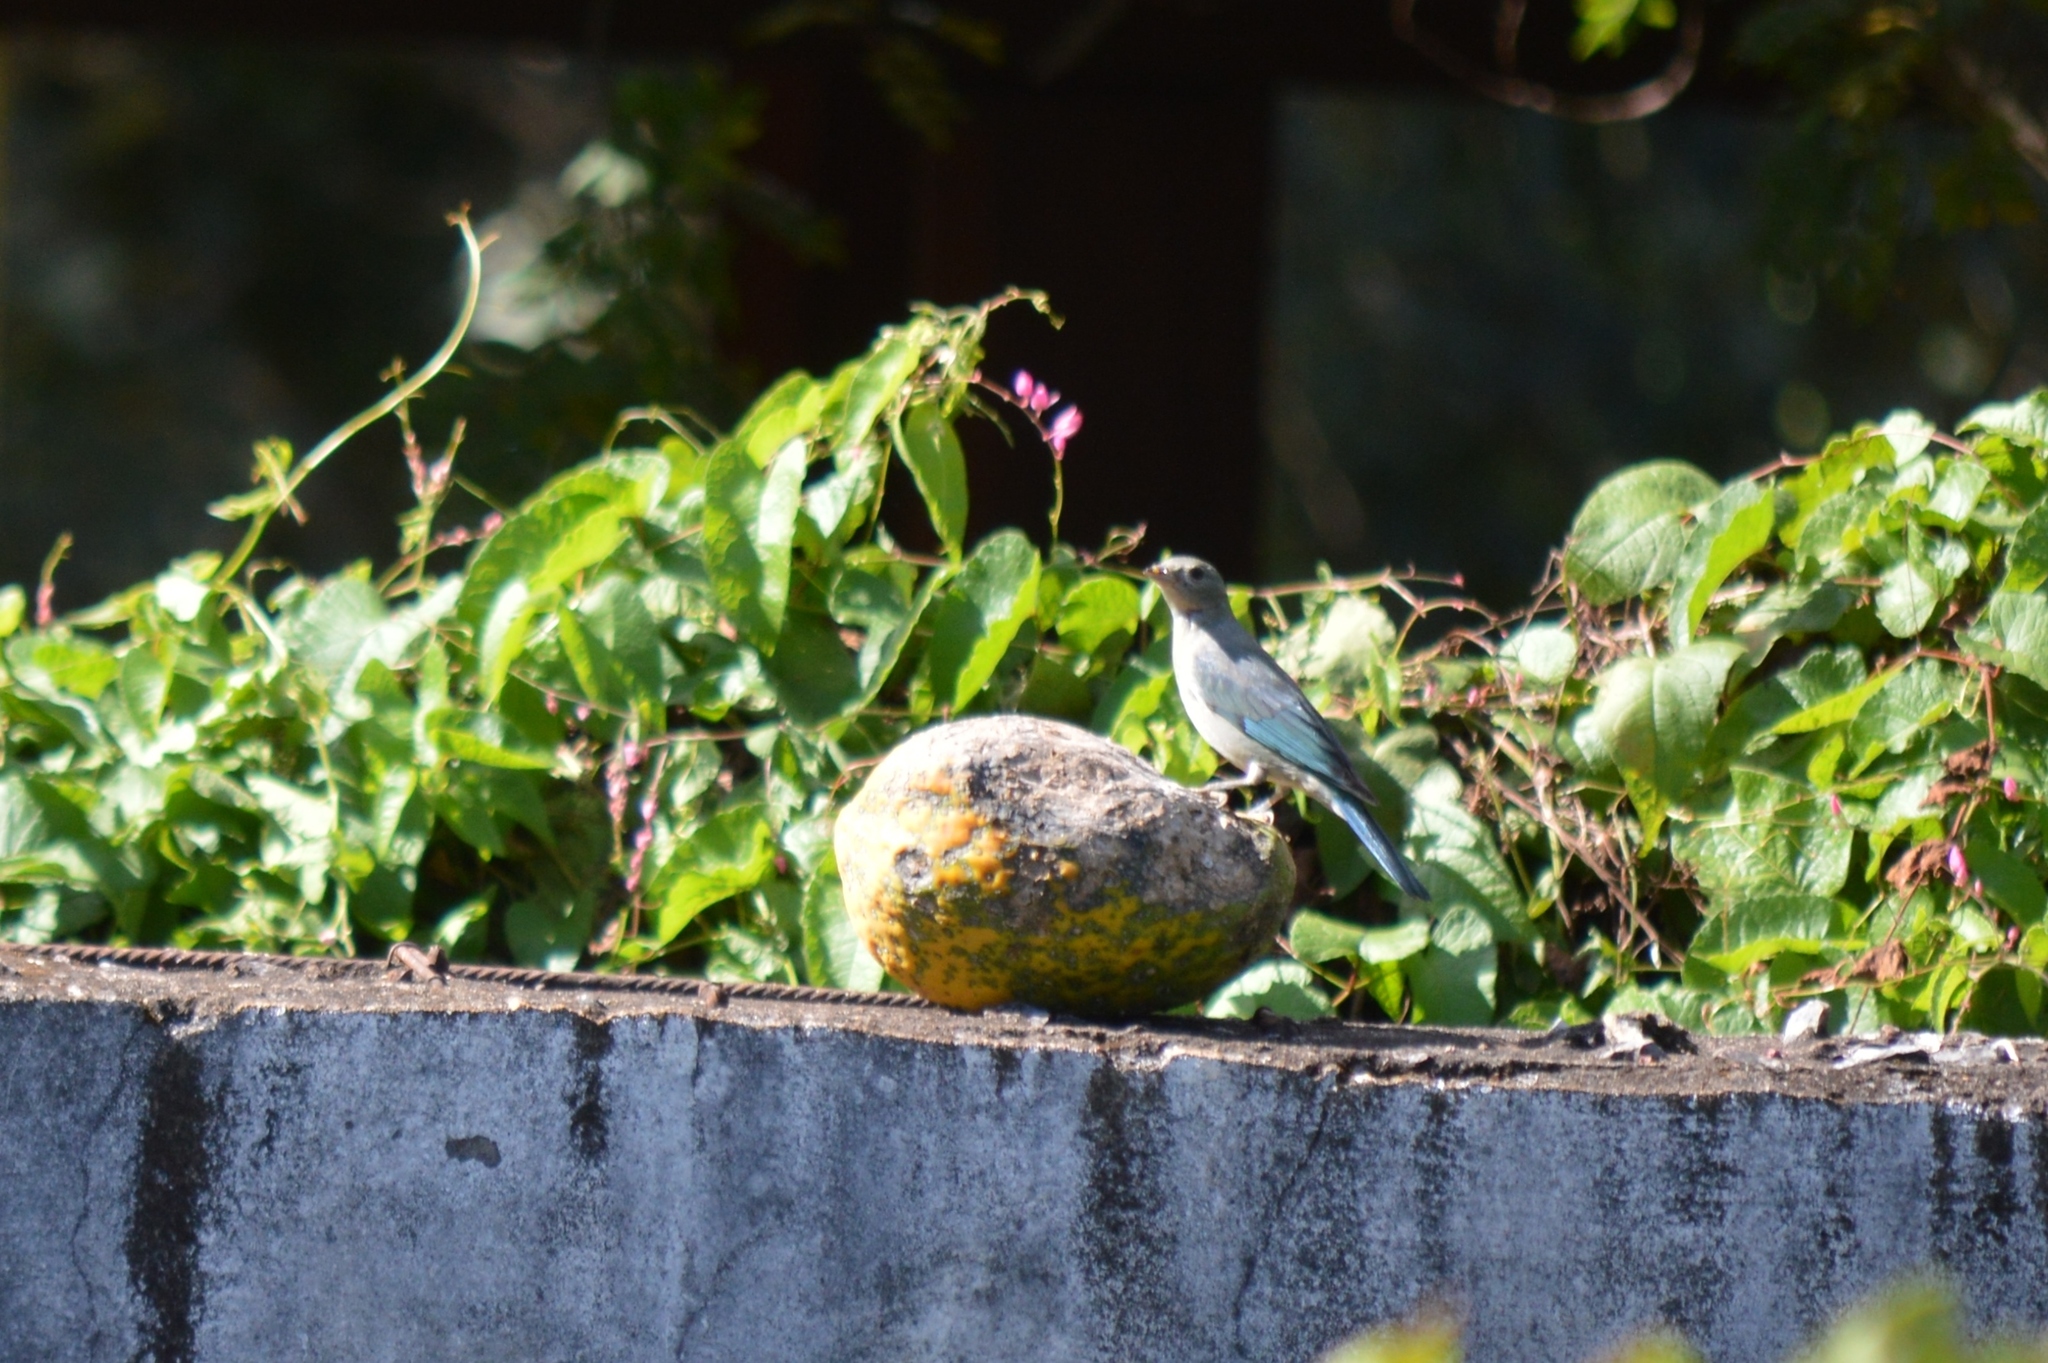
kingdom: Animalia
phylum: Chordata
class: Aves
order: Passeriformes
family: Thraupidae
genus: Thraupis
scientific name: Thraupis sayaca
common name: Sayaca tanager
